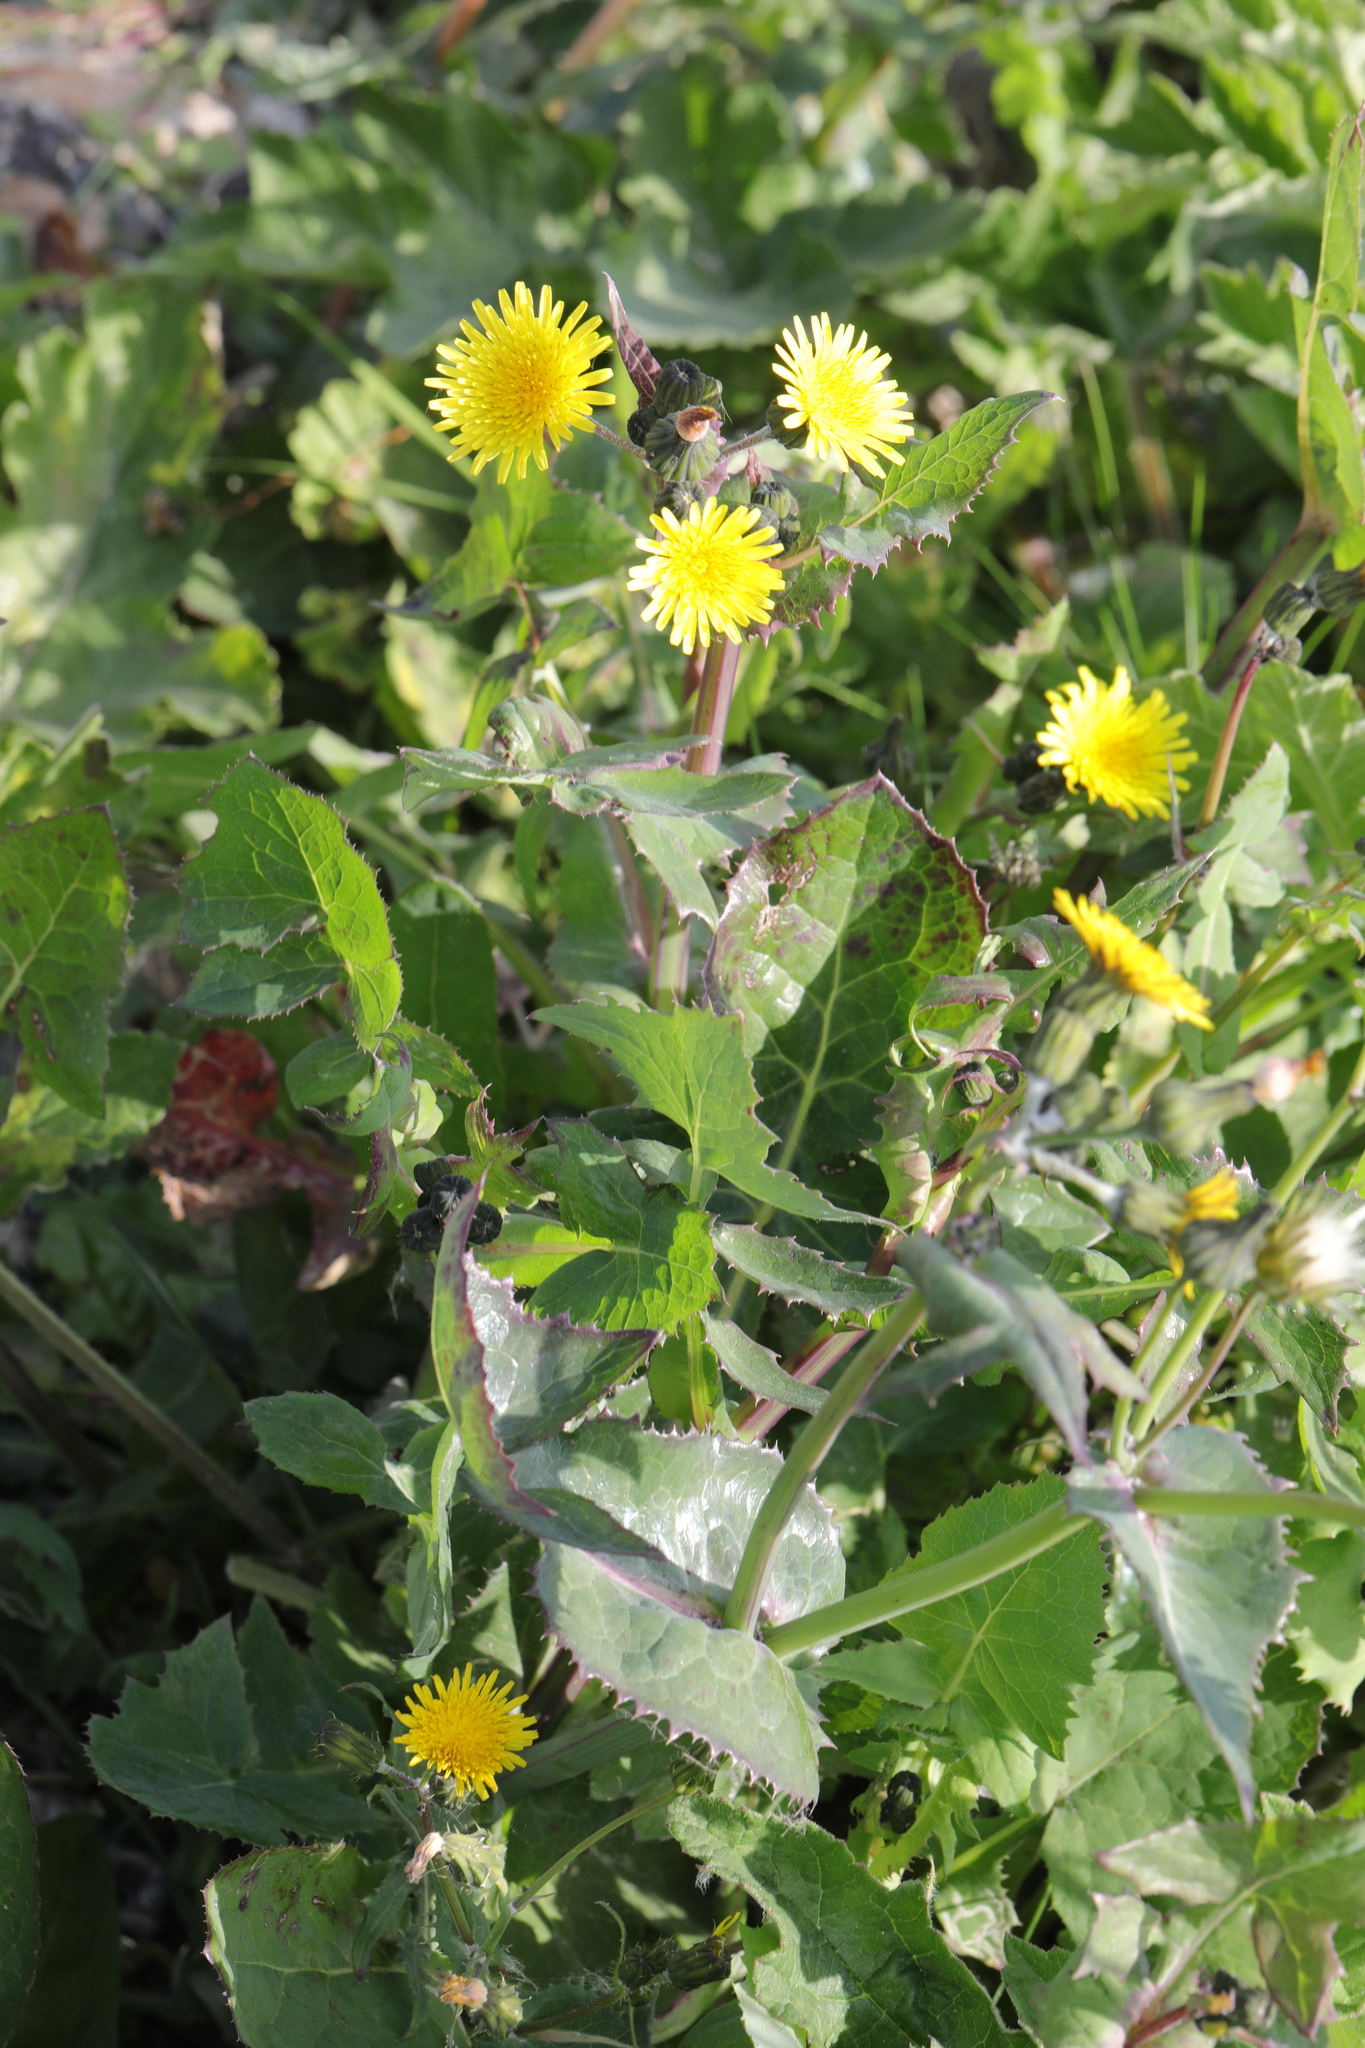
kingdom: Plantae
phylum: Tracheophyta
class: Magnoliopsida
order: Asterales
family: Asteraceae
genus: Sonchus
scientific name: Sonchus oleraceus
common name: Common sowthistle
